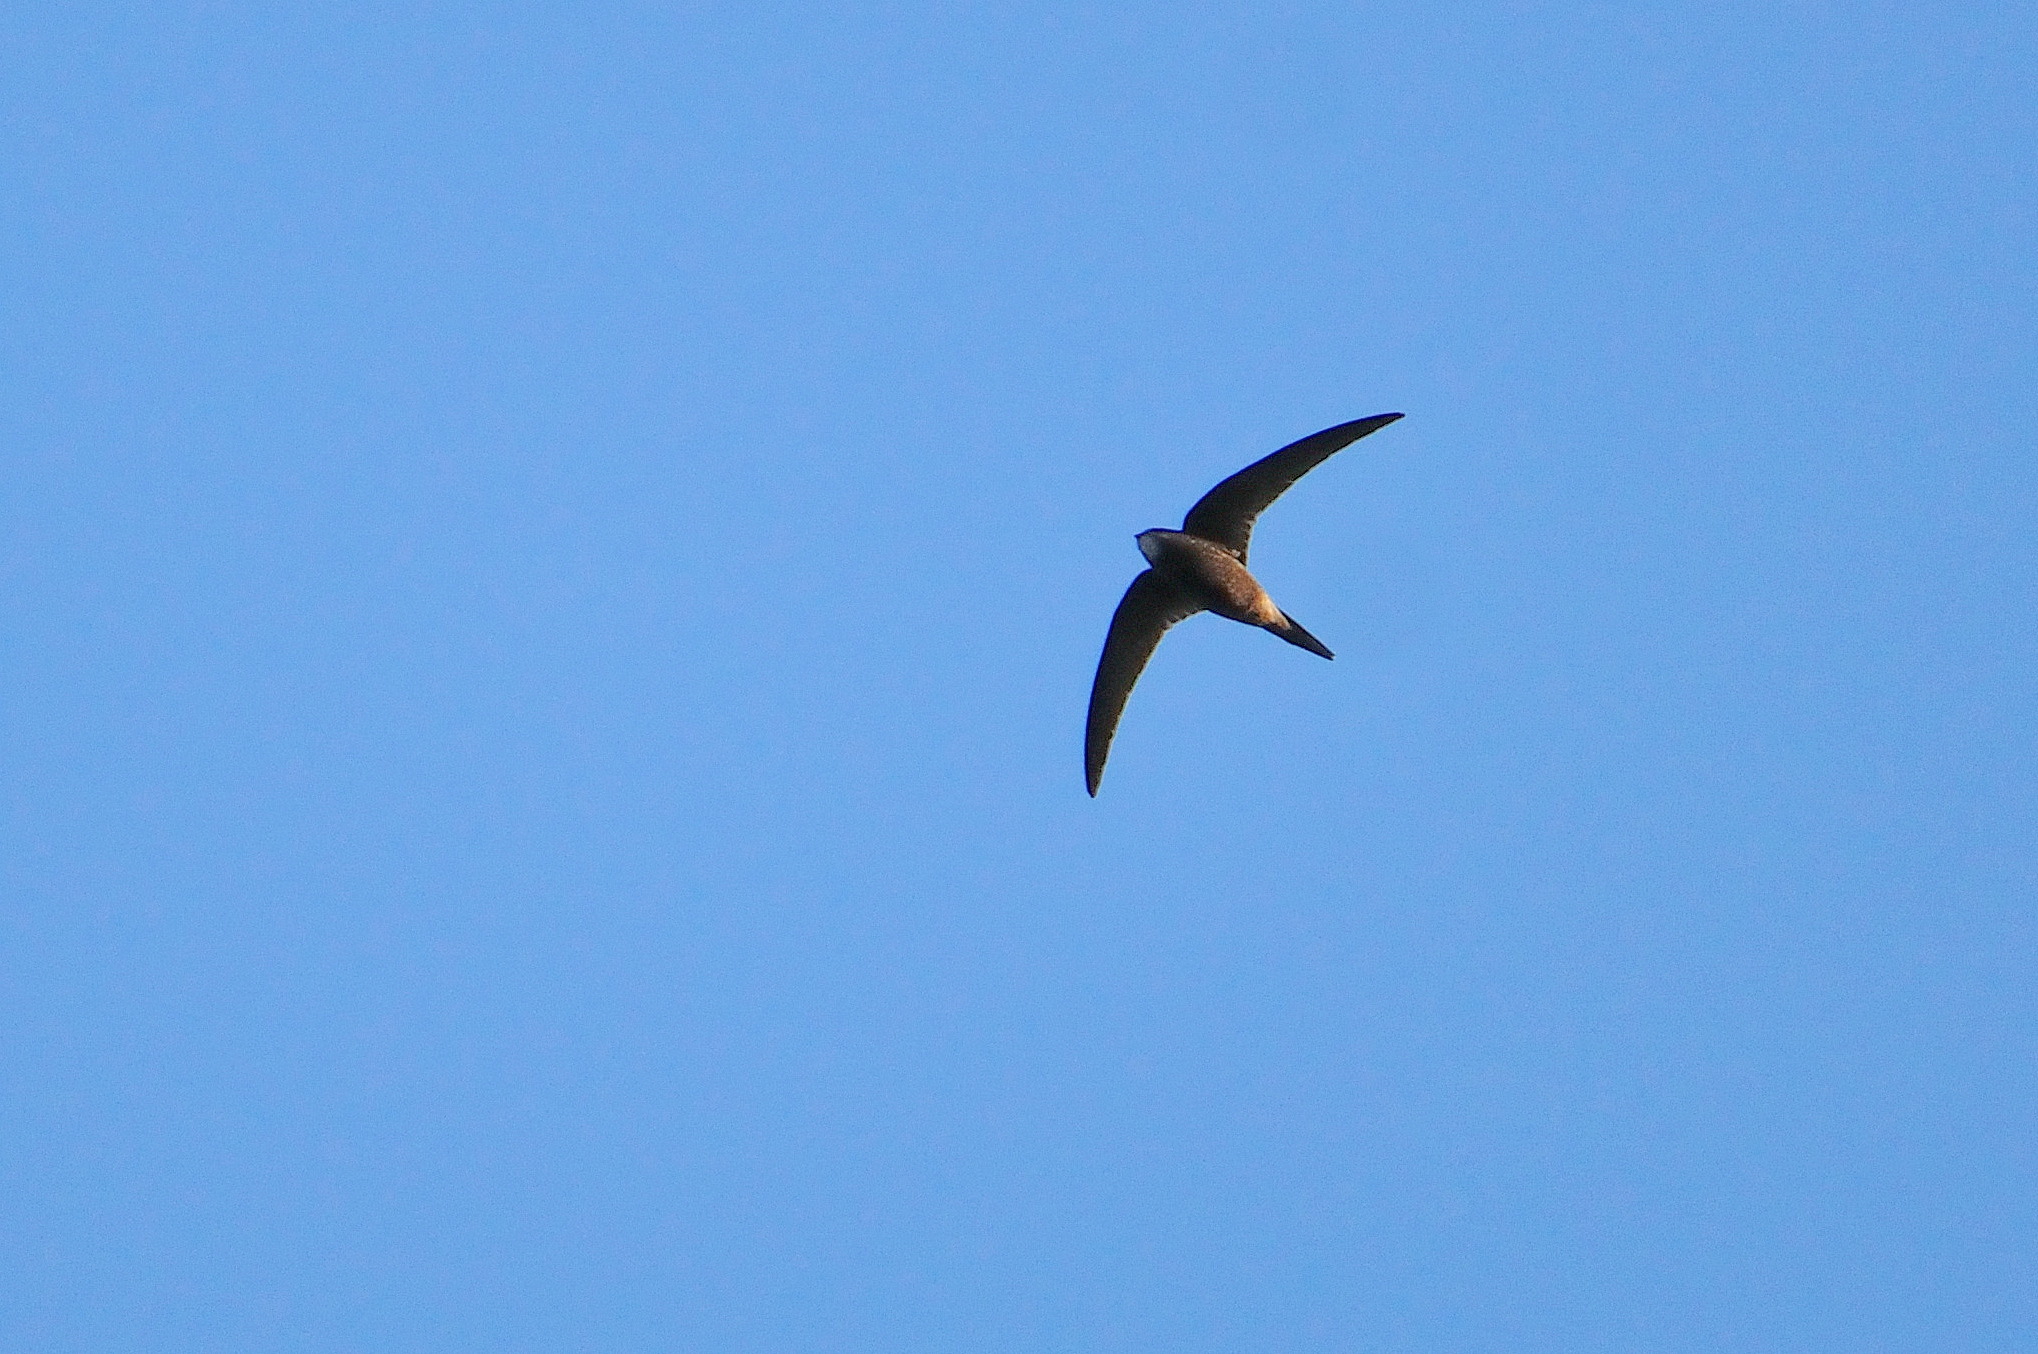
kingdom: Animalia
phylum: Chordata
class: Aves
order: Apodiformes
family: Apodidae
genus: Apus
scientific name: Apus apus
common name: Common swift
